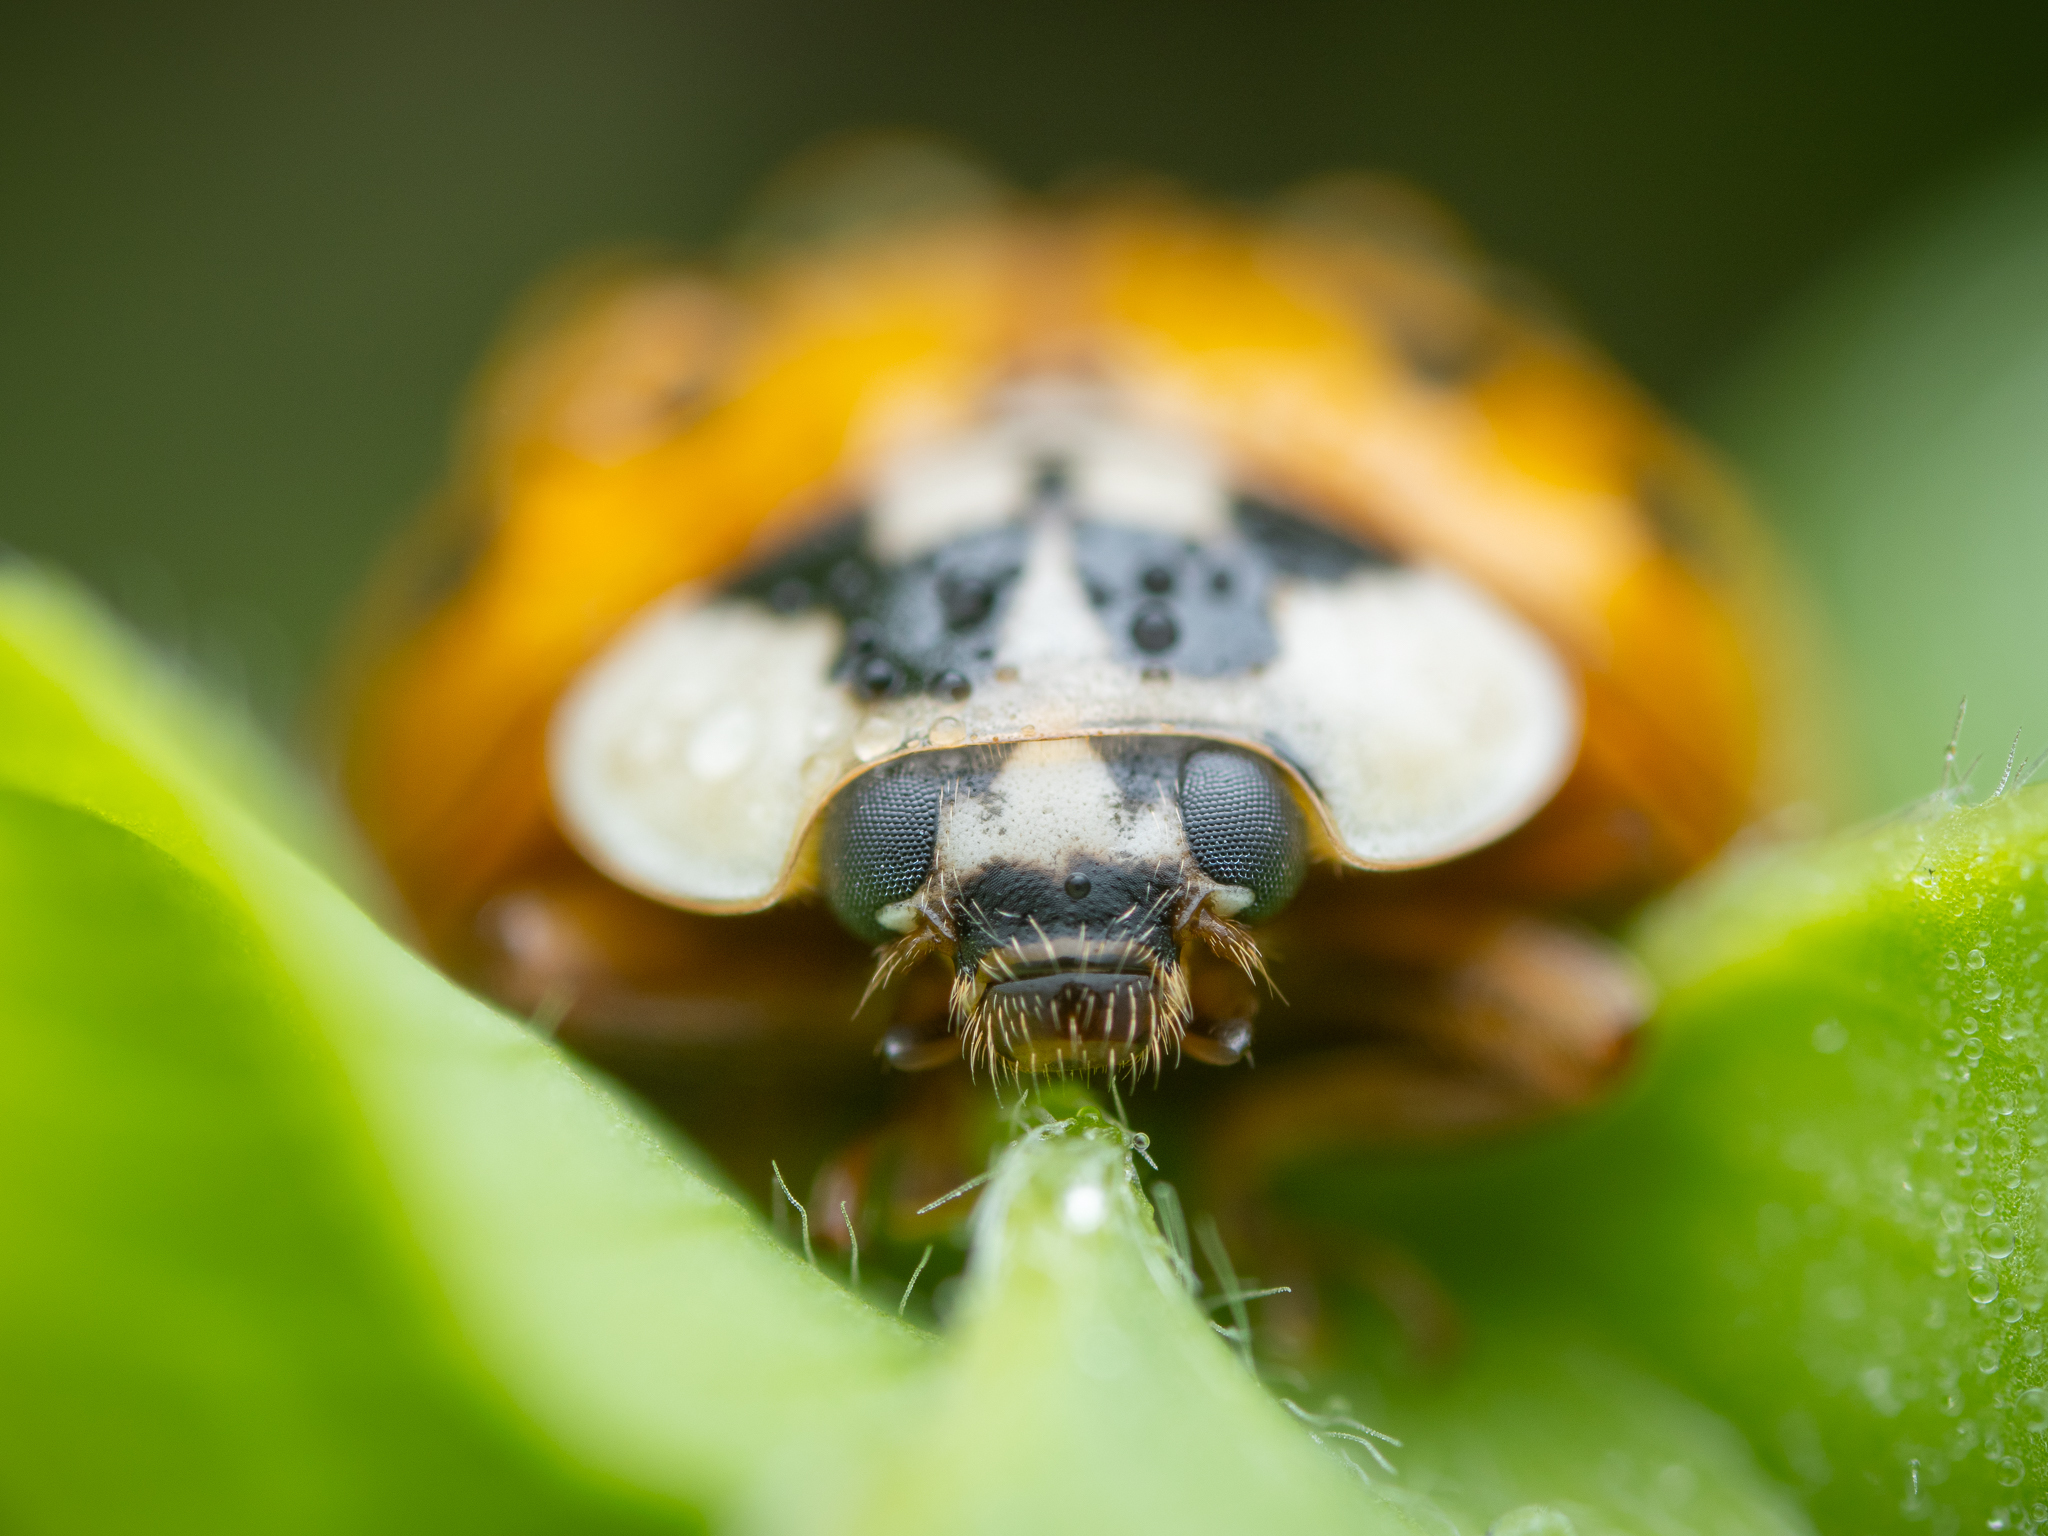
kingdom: Animalia
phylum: Arthropoda
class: Insecta
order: Coleoptera
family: Coccinellidae
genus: Harmonia
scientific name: Harmonia axyridis
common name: Harlequin ladybird
